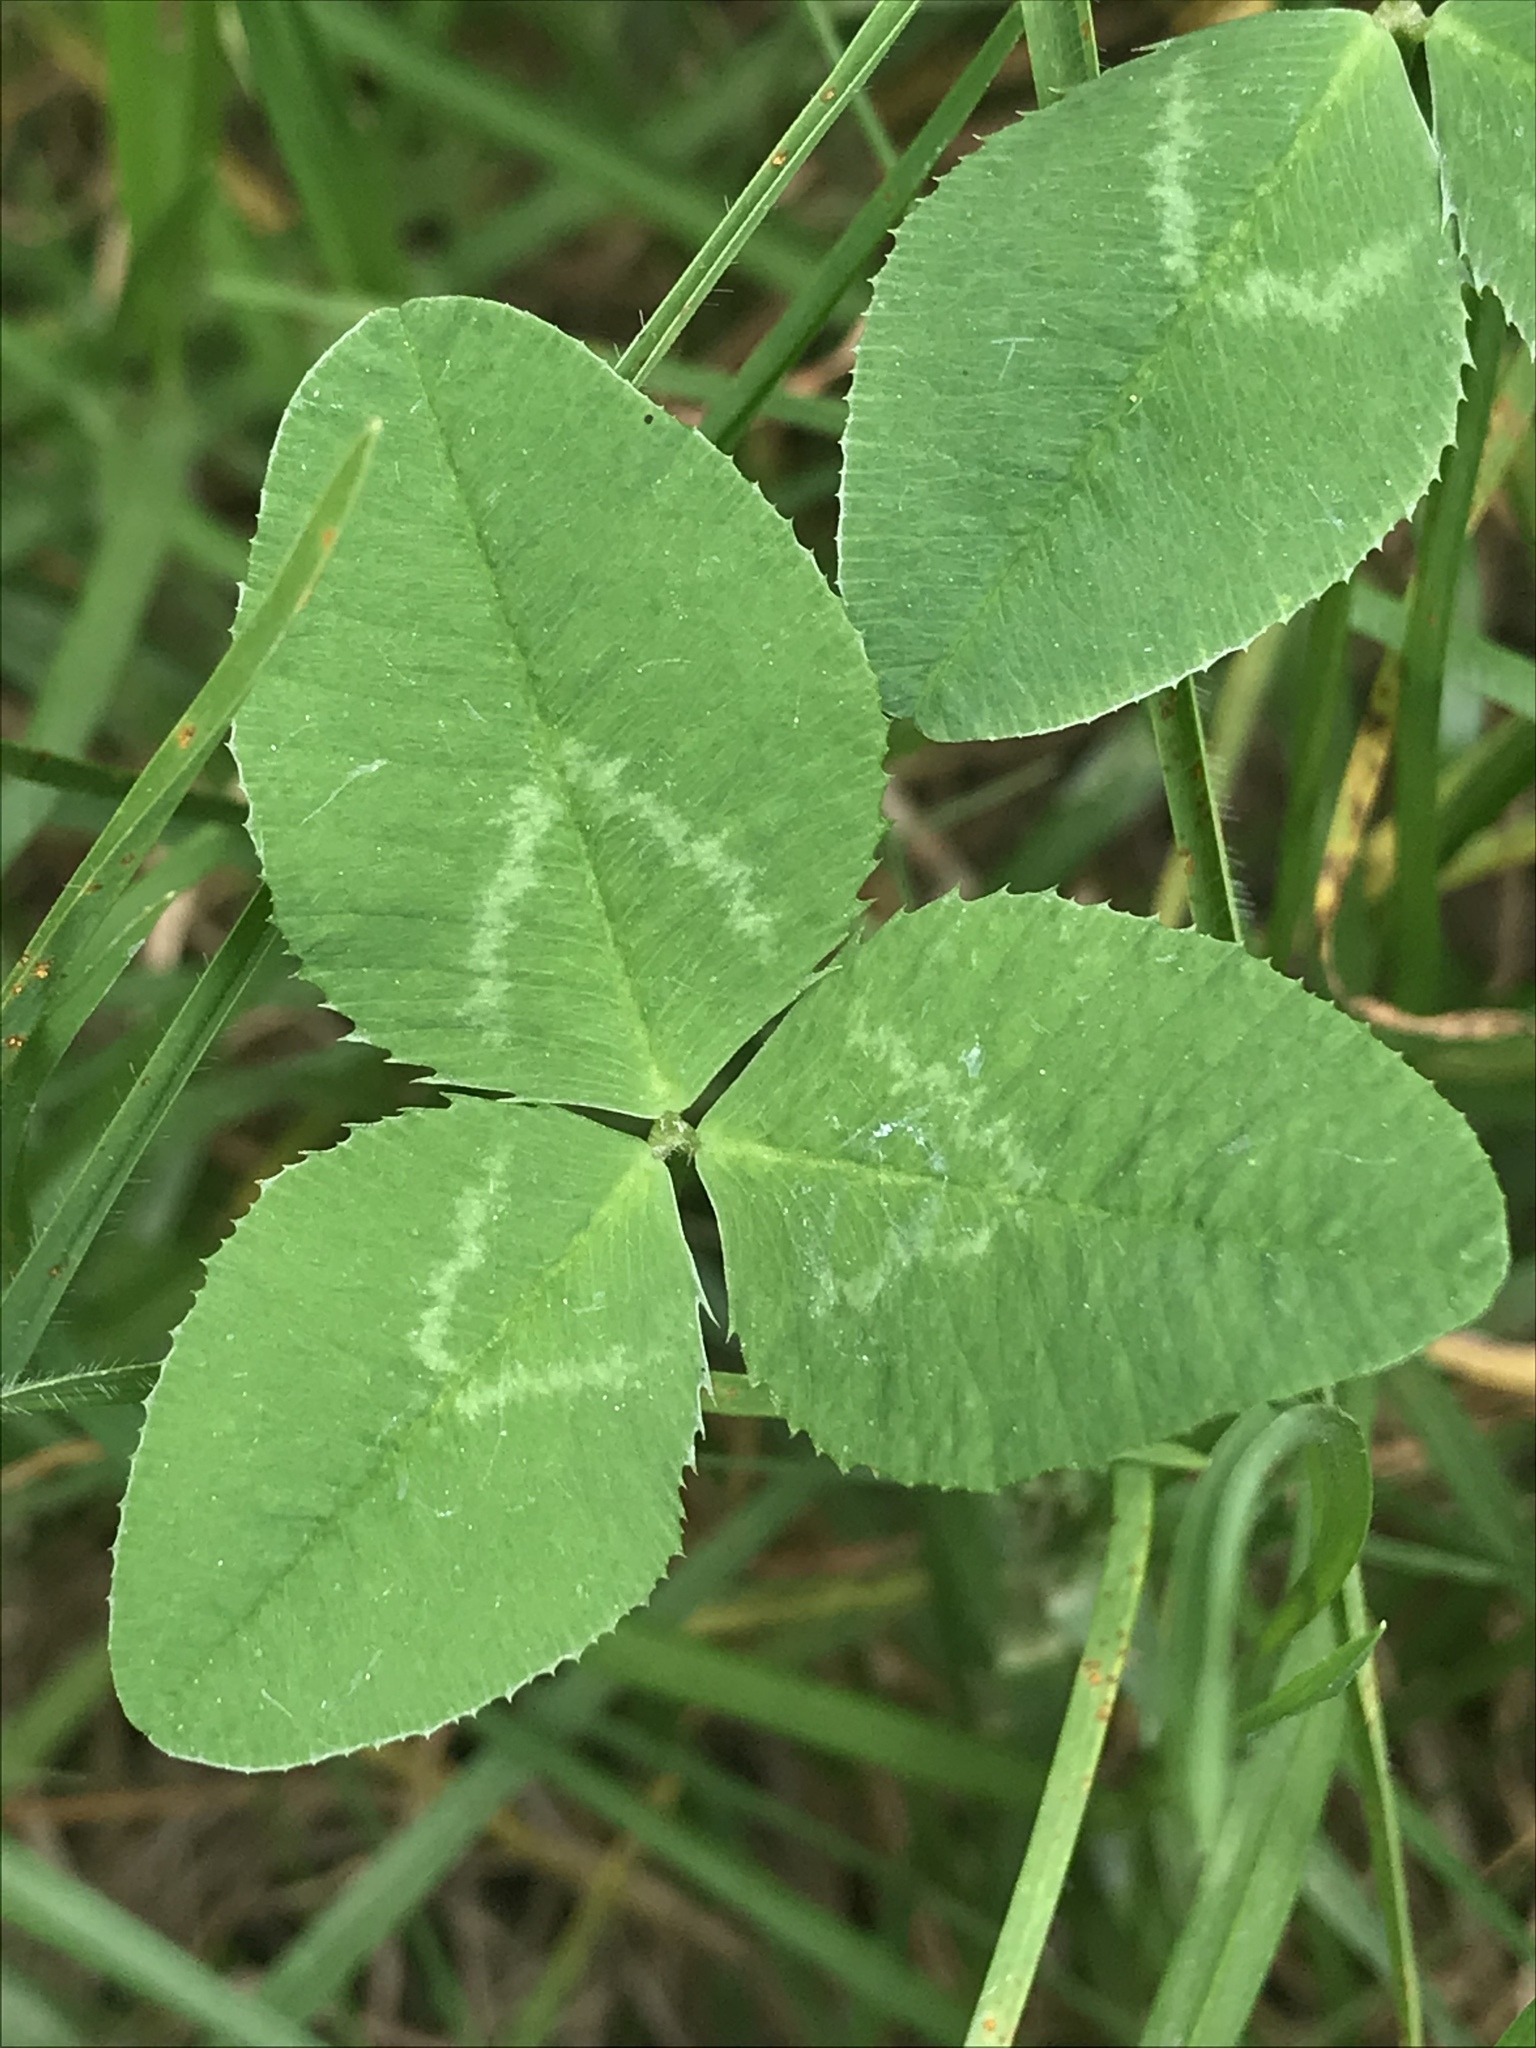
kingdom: Plantae
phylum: Tracheophyta
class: Magnoliopsida
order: Fabales
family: Fabaceae
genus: Trifolium
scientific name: Trifolium repens
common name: White clover
